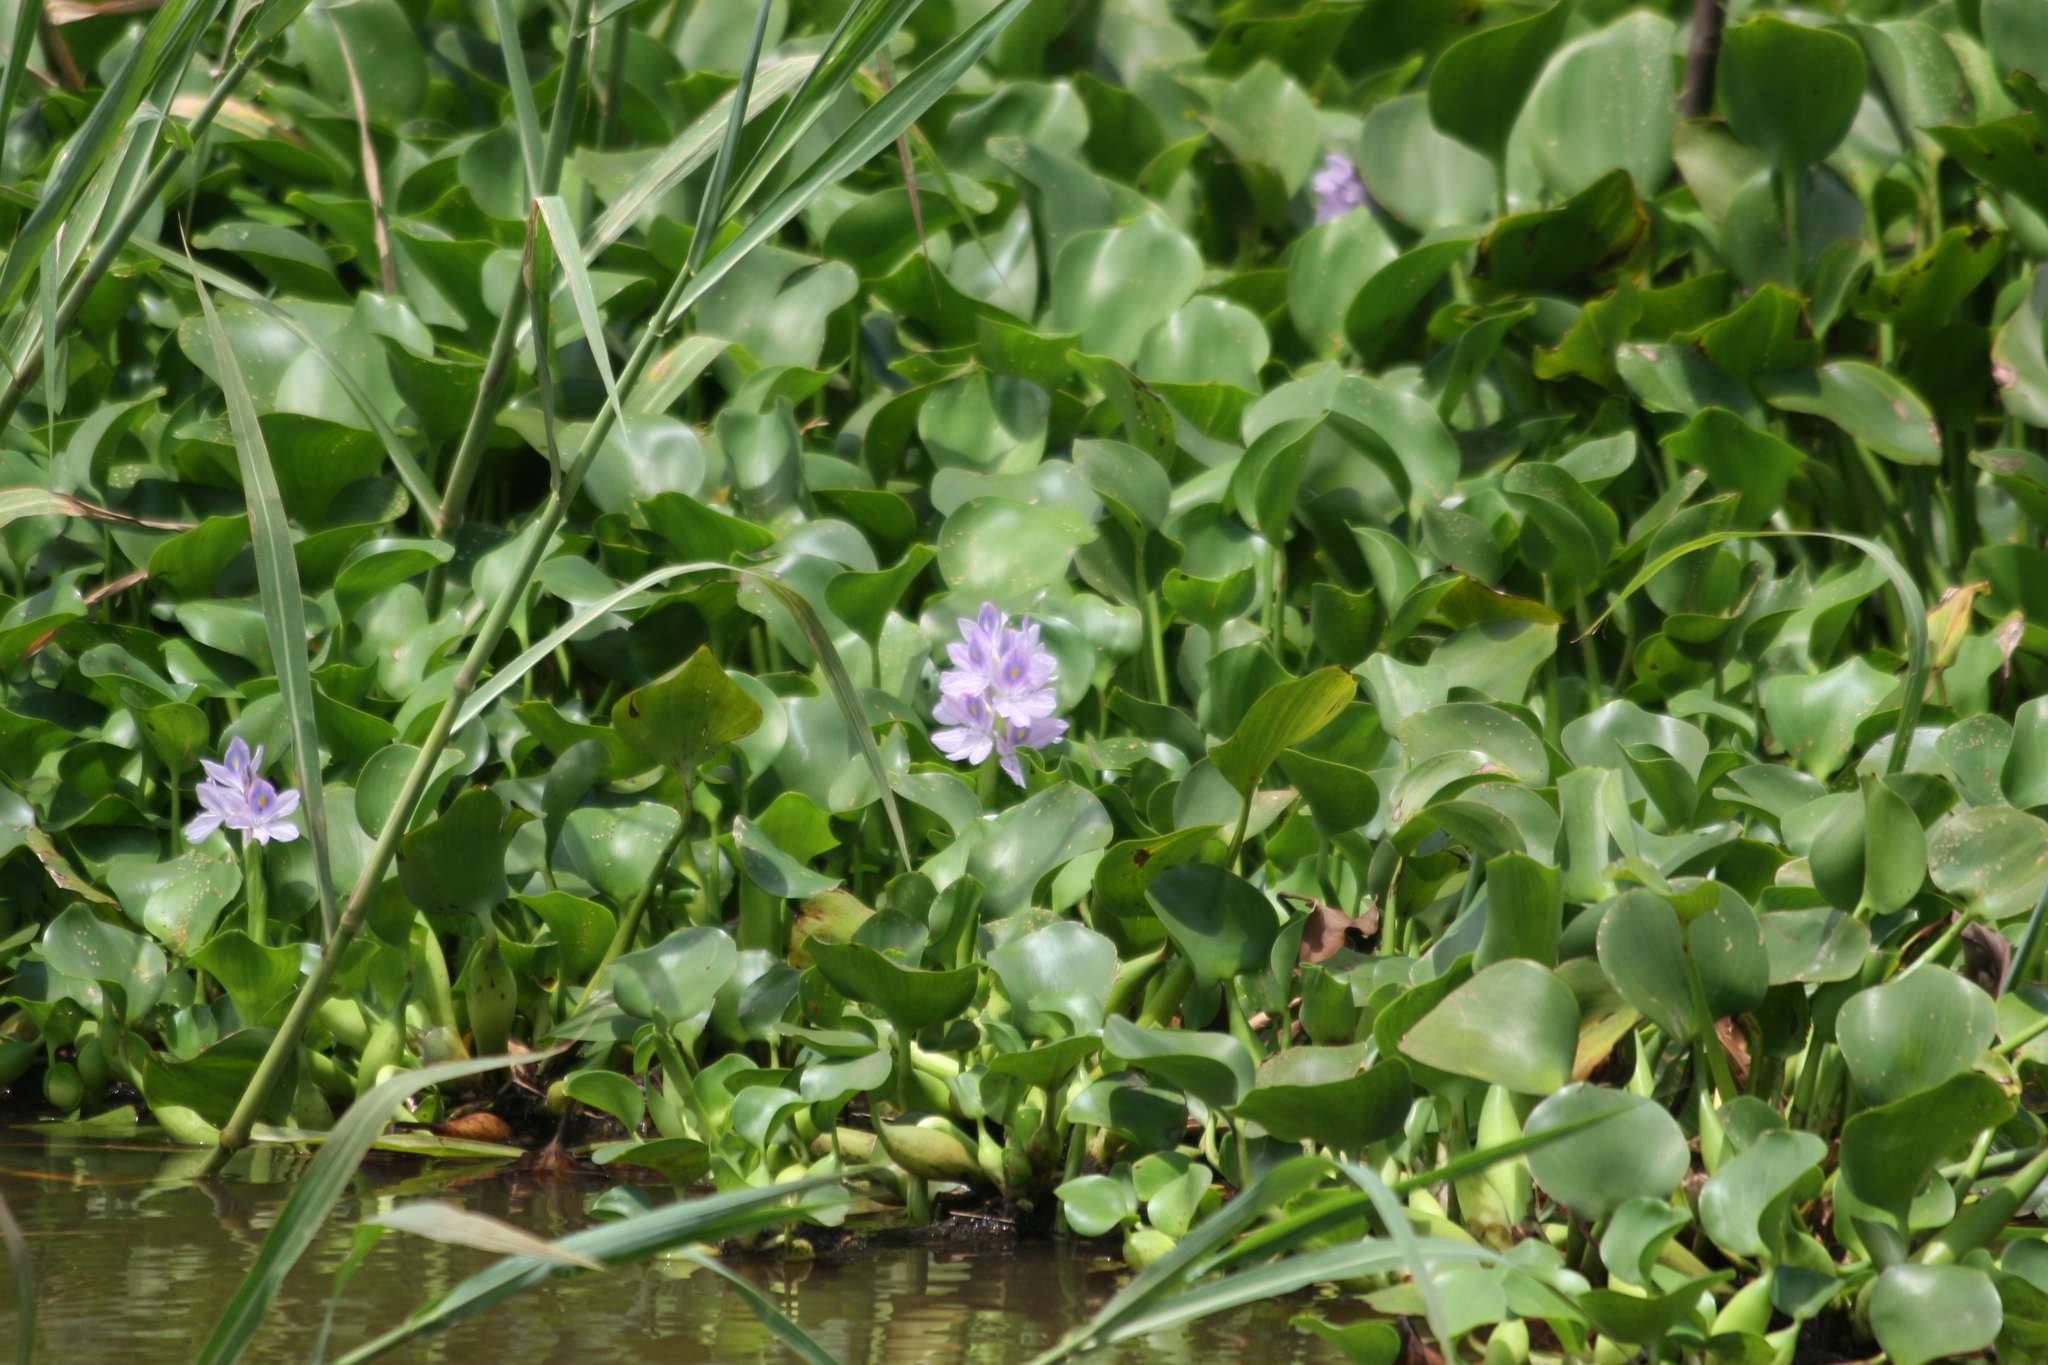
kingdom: Plantae
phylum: Tracheophyta
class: Liliopsida
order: Commelinales
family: Pontederiaceae
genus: Pontederia
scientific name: Pontederia crassipes
